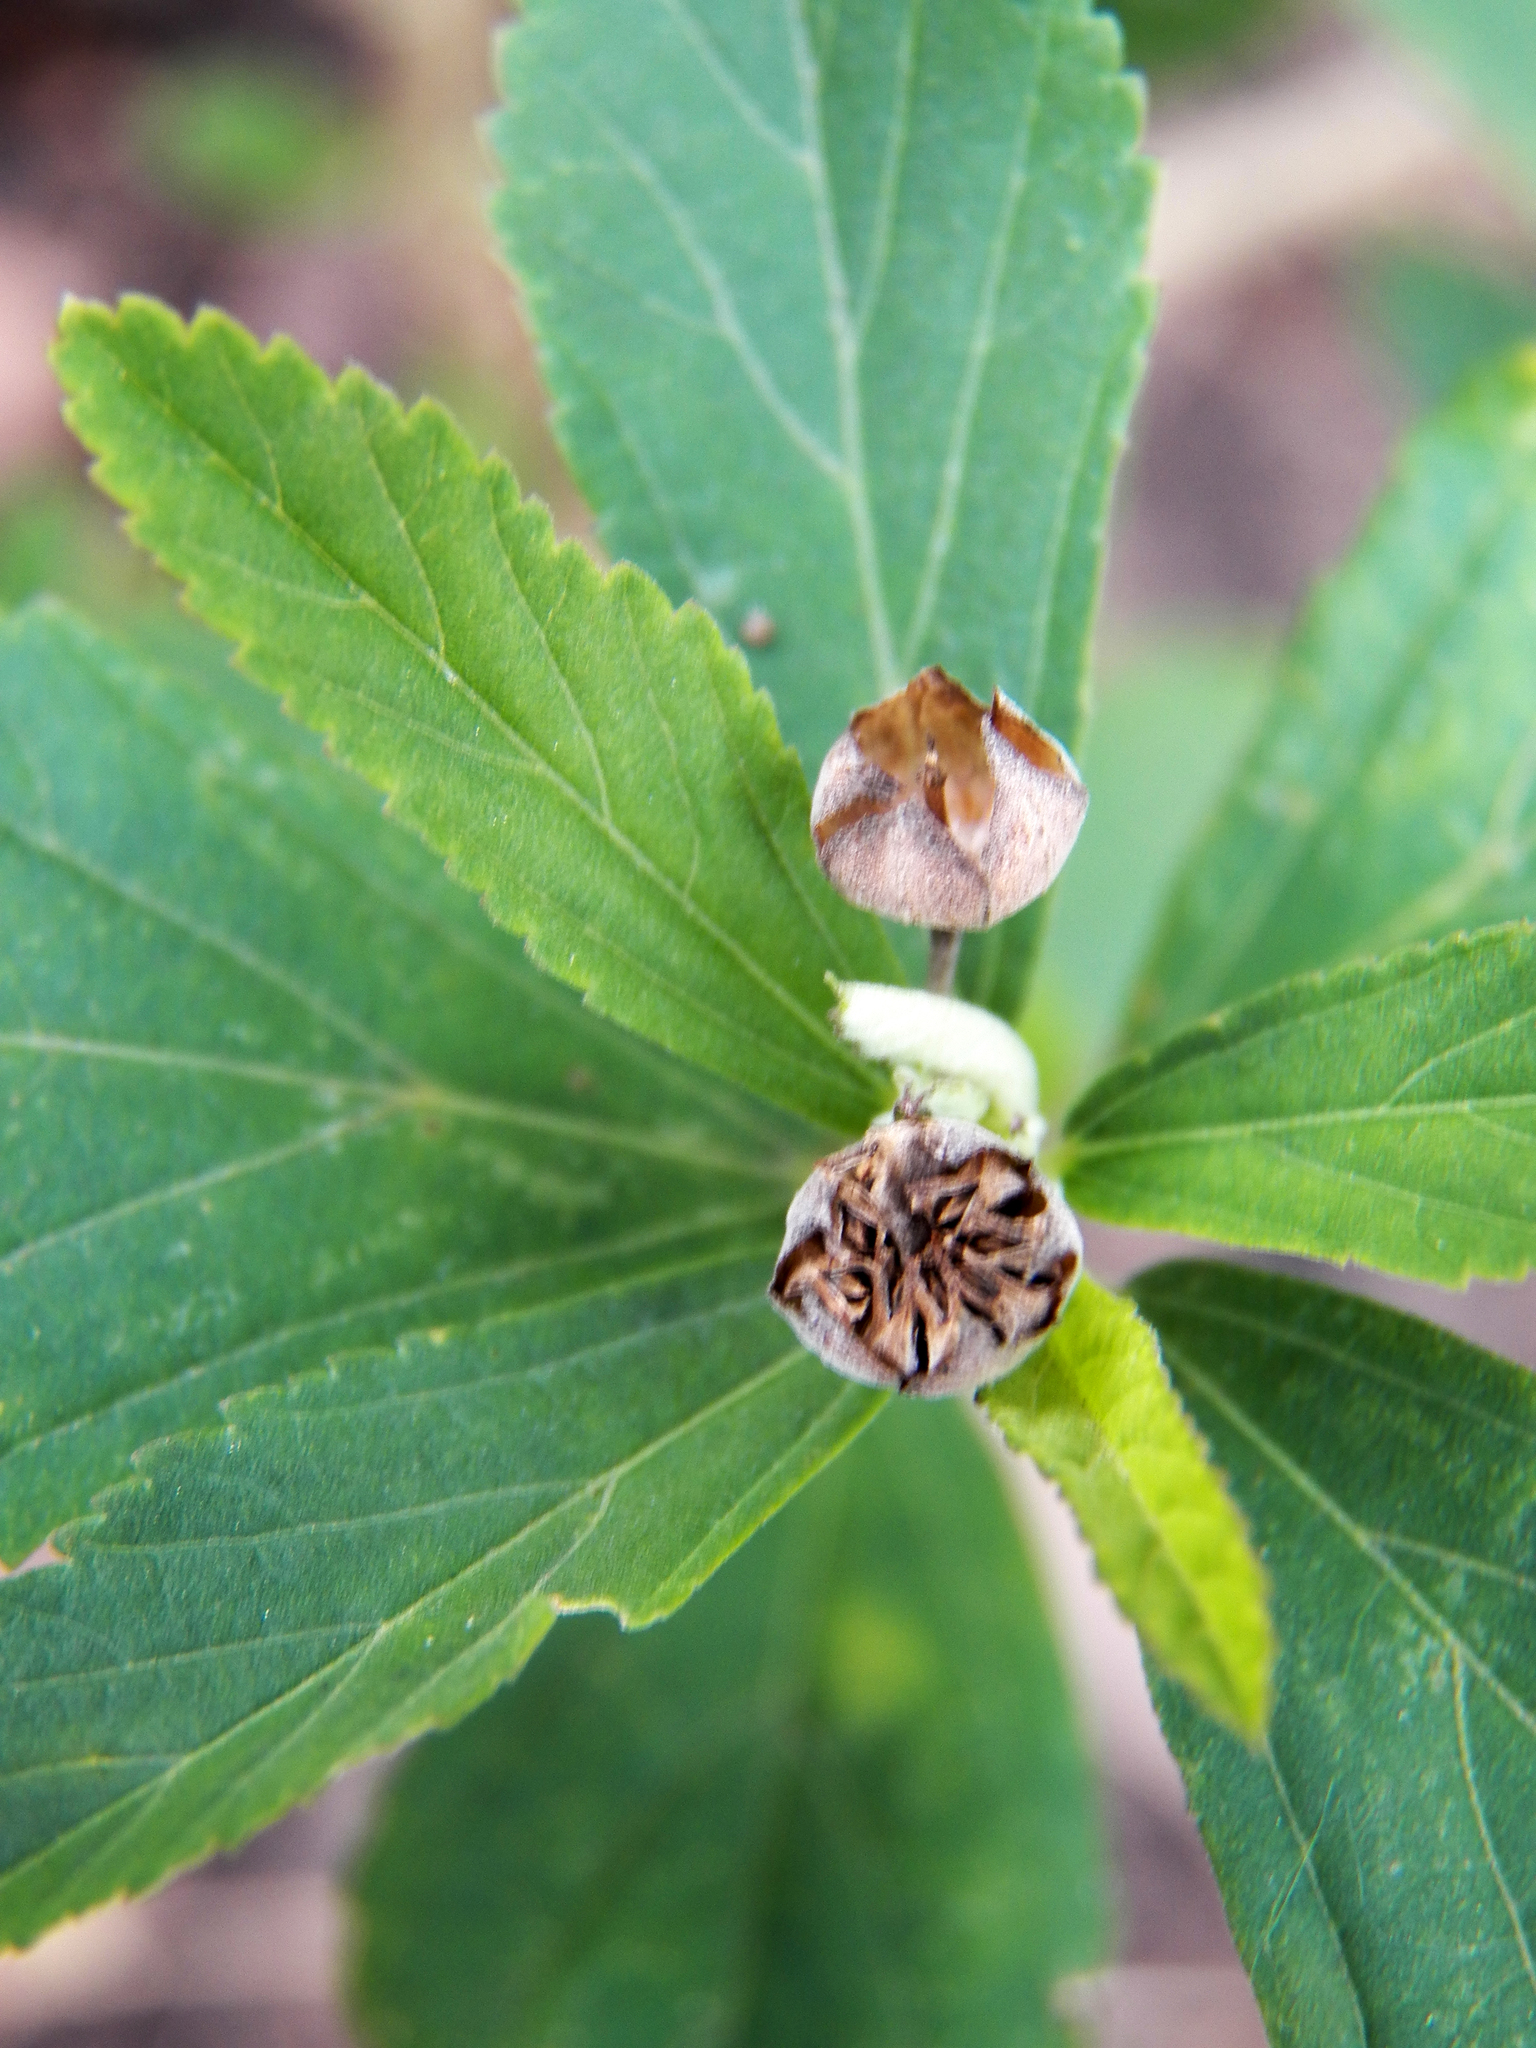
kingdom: Plantae
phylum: Tracheophyta
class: Magnoliopsida
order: Malvales
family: Malvaceae
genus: Sida
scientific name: Sida rhombifolia
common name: Queensland-hemp
